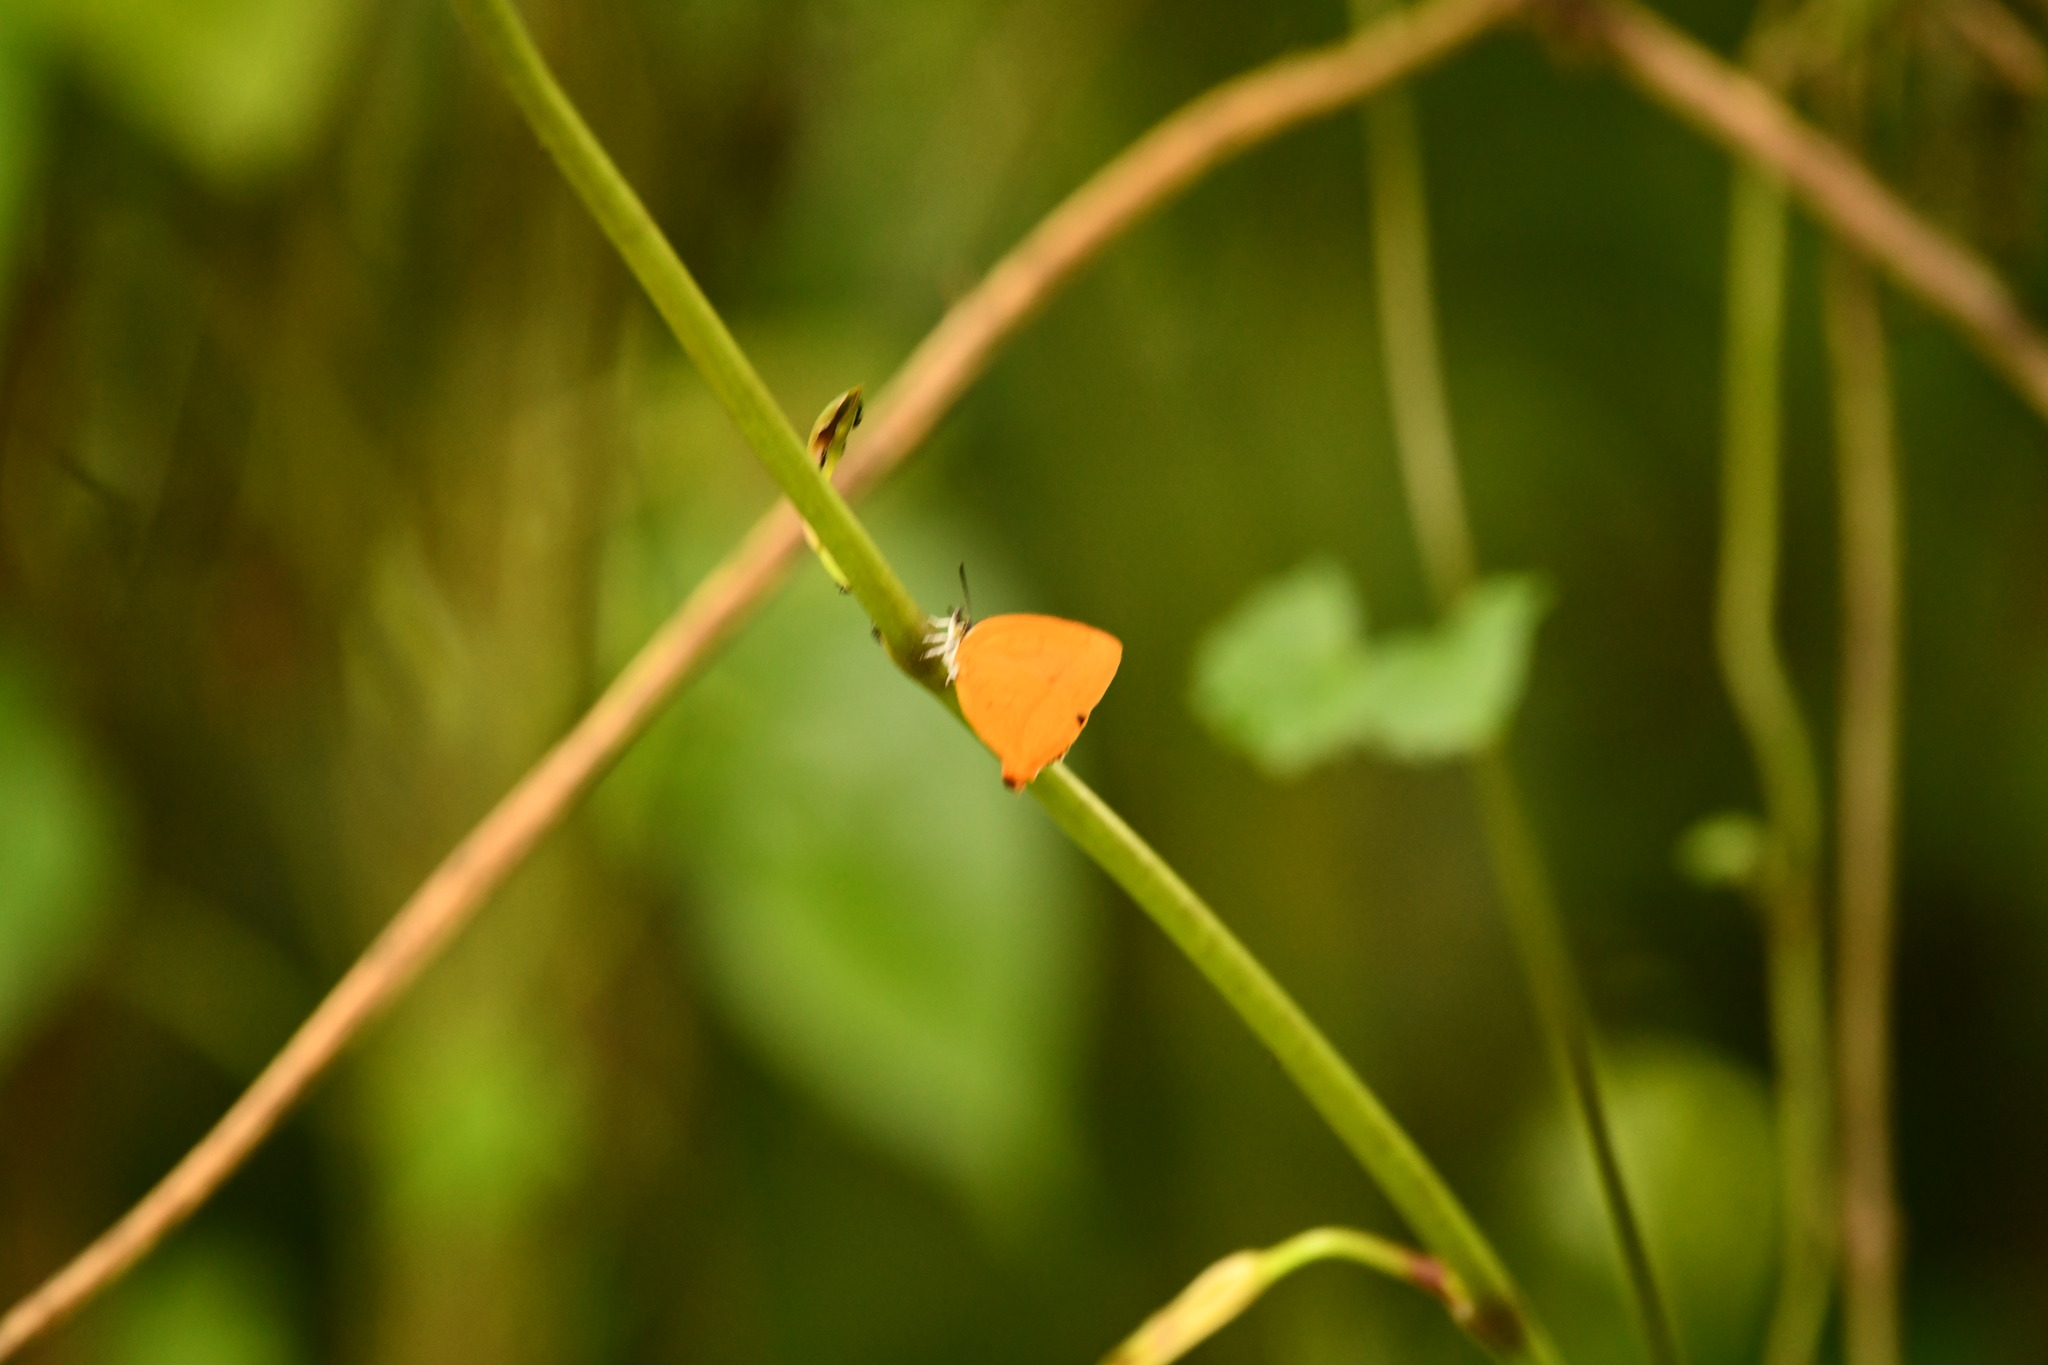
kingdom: Animalia
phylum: Arthropoda
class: Insecta
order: Lepidoptera
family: Lycaenidae
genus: Loxura
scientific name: Loxura atymnus
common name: Common yamfly
